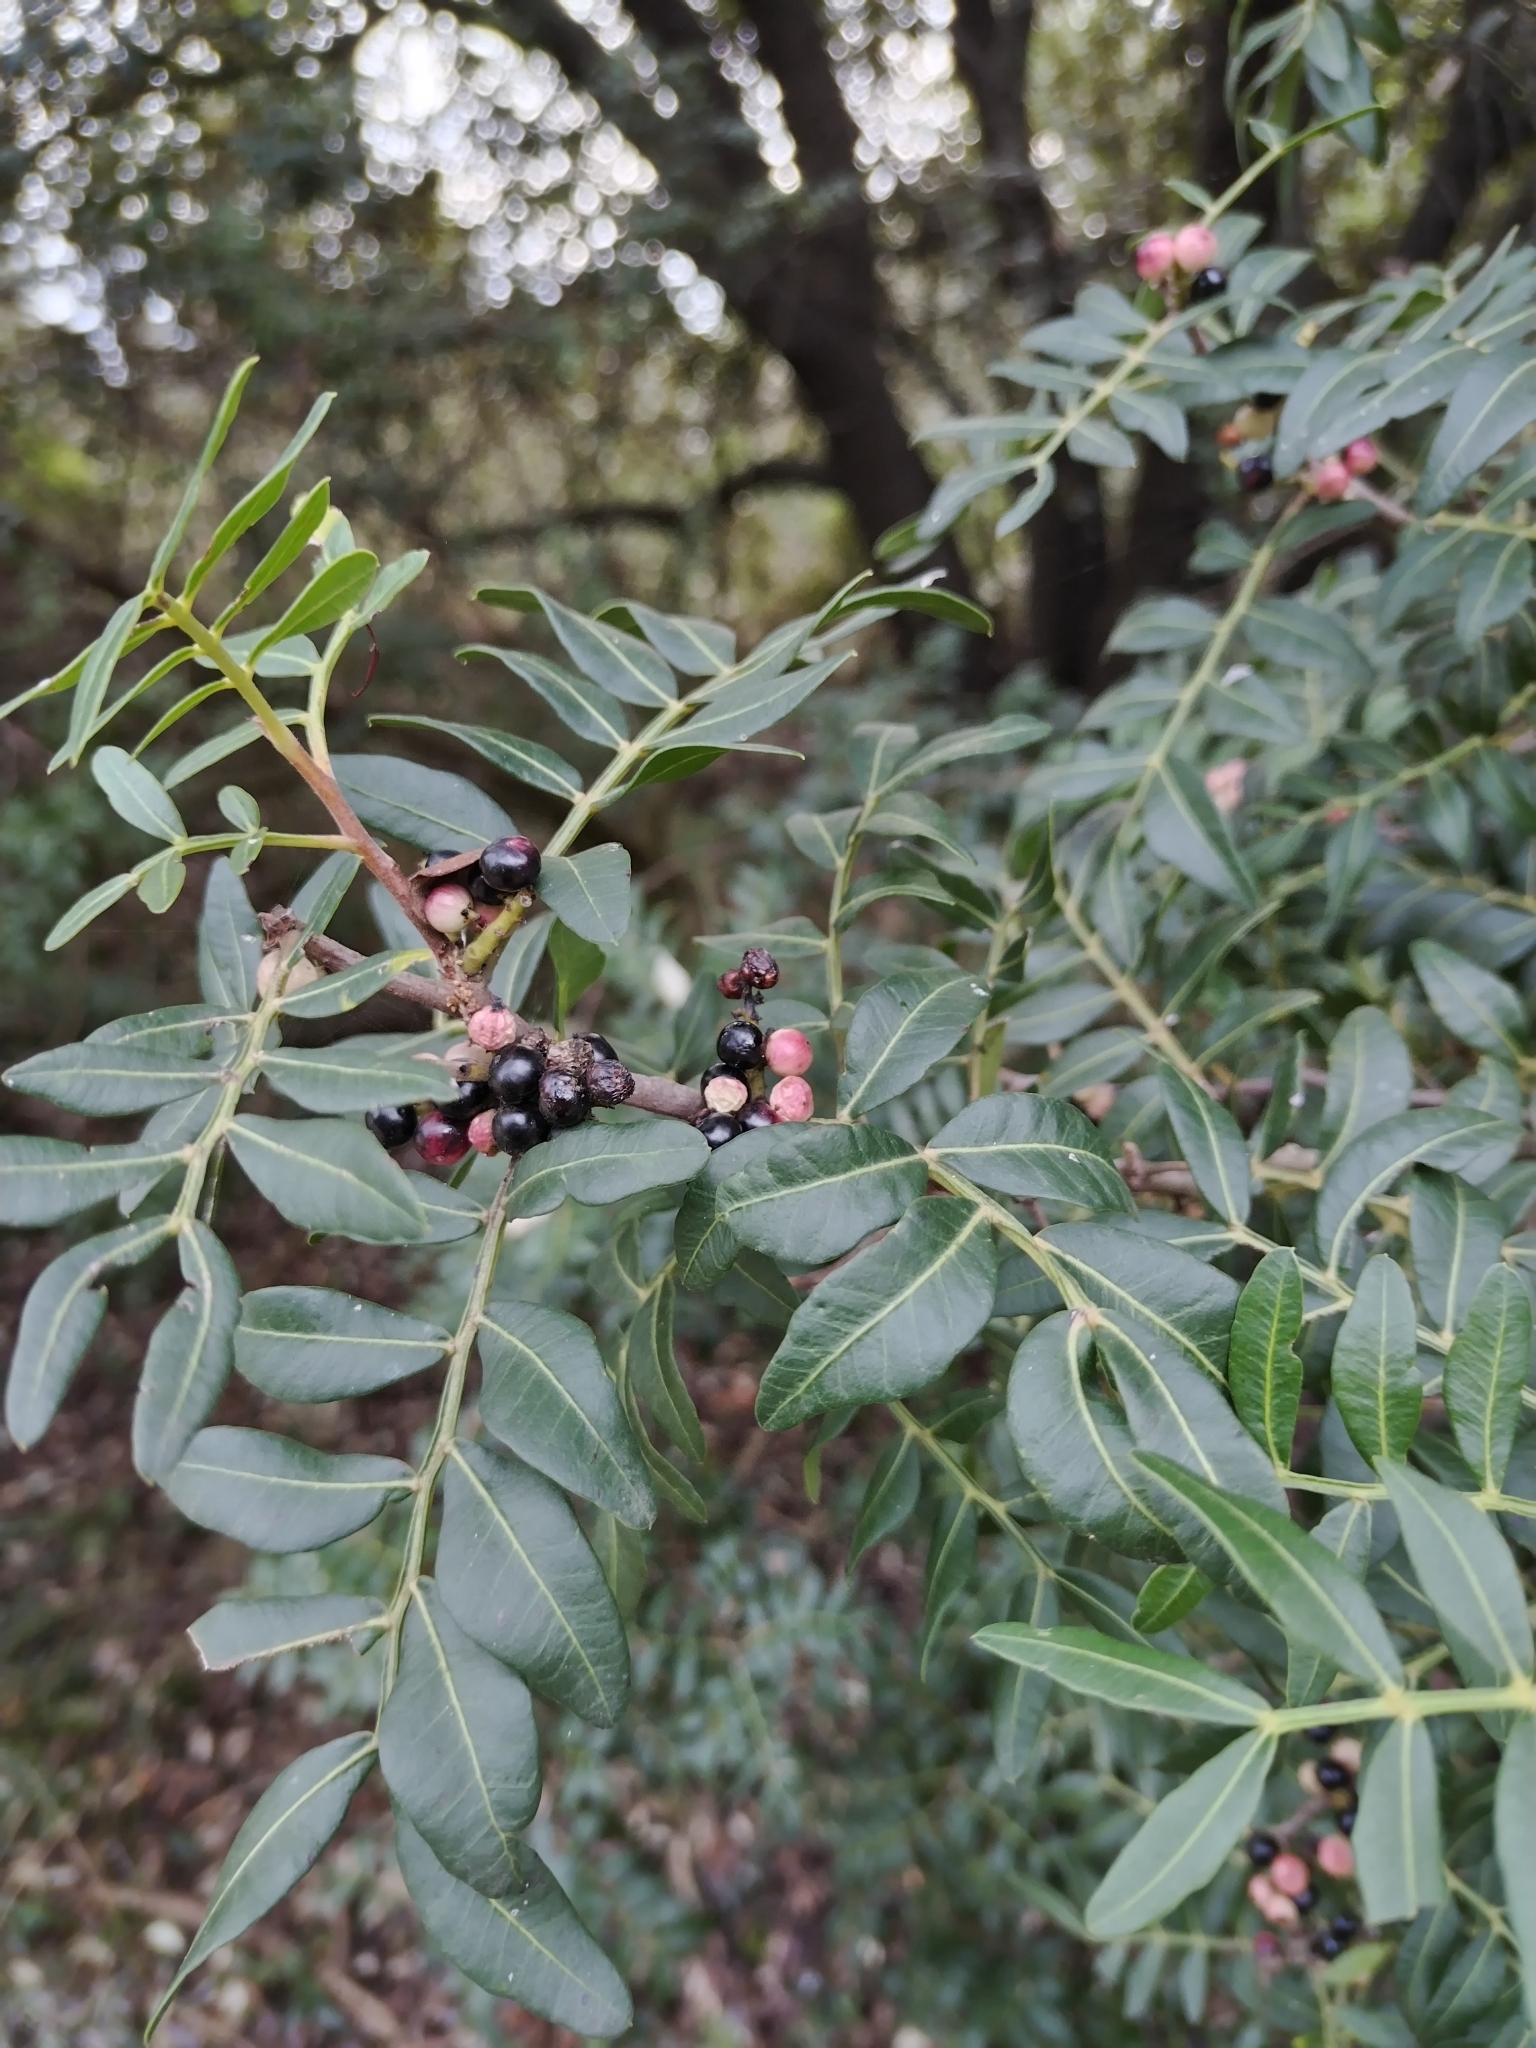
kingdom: Plantae
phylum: Tracheophyta
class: Magnoliopsida
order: Sapindales
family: Anacardiaceae
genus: Pistacia
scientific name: Pistacia lentiscus
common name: Lentisk
